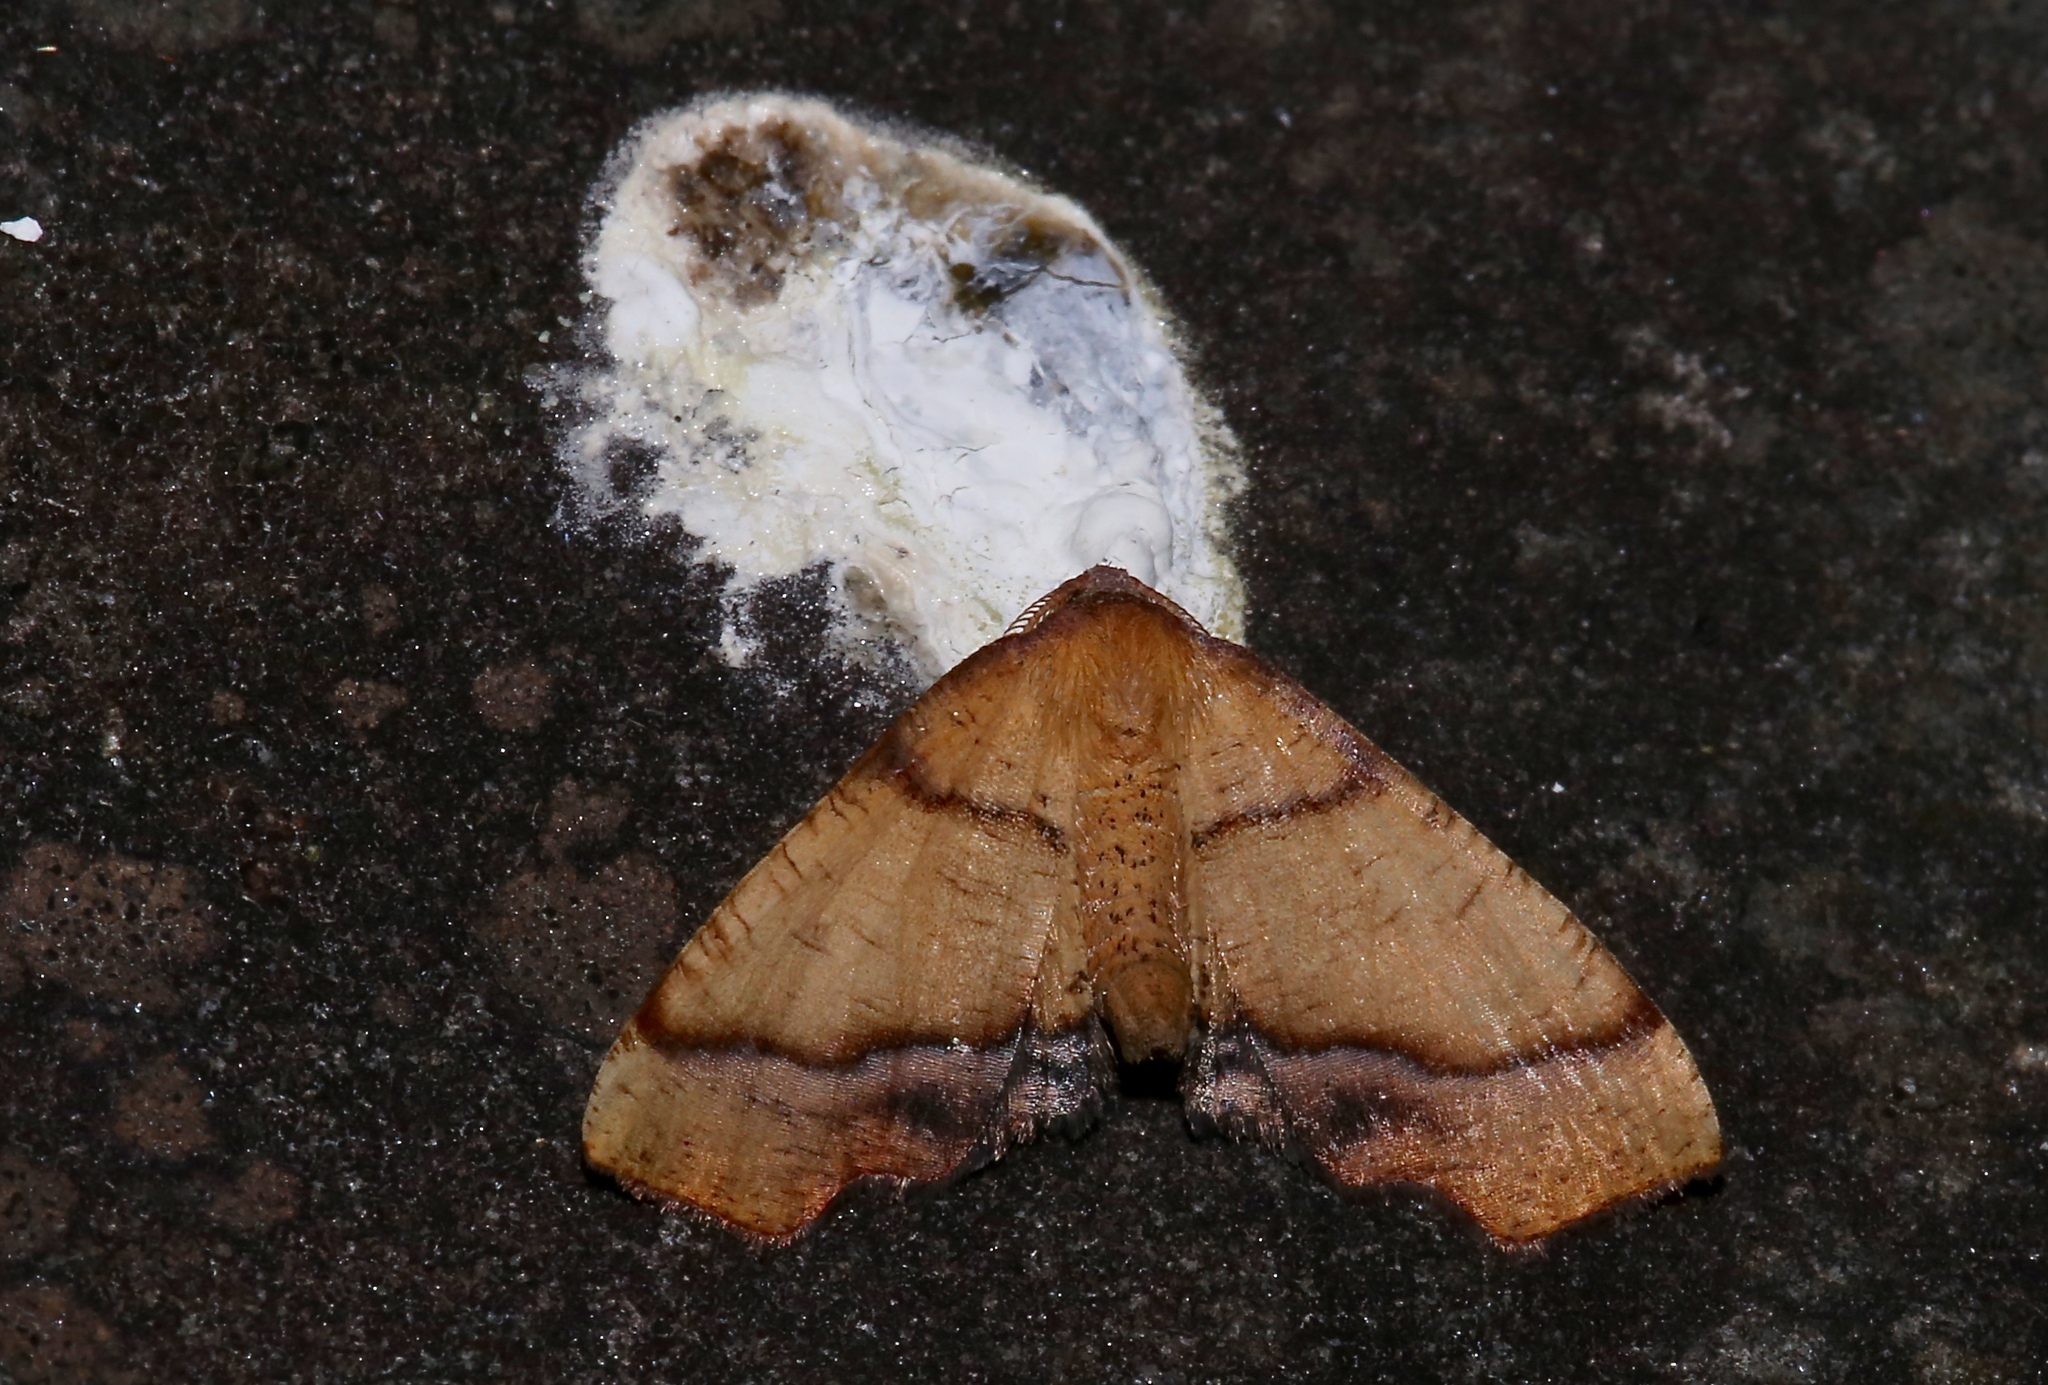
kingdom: Animalia
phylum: Arthropoda
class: Insecta
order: Lepidoptera
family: Geometridae
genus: Plagodis
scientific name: Plagodis phlogosaria
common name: Straight-lined plagodis
